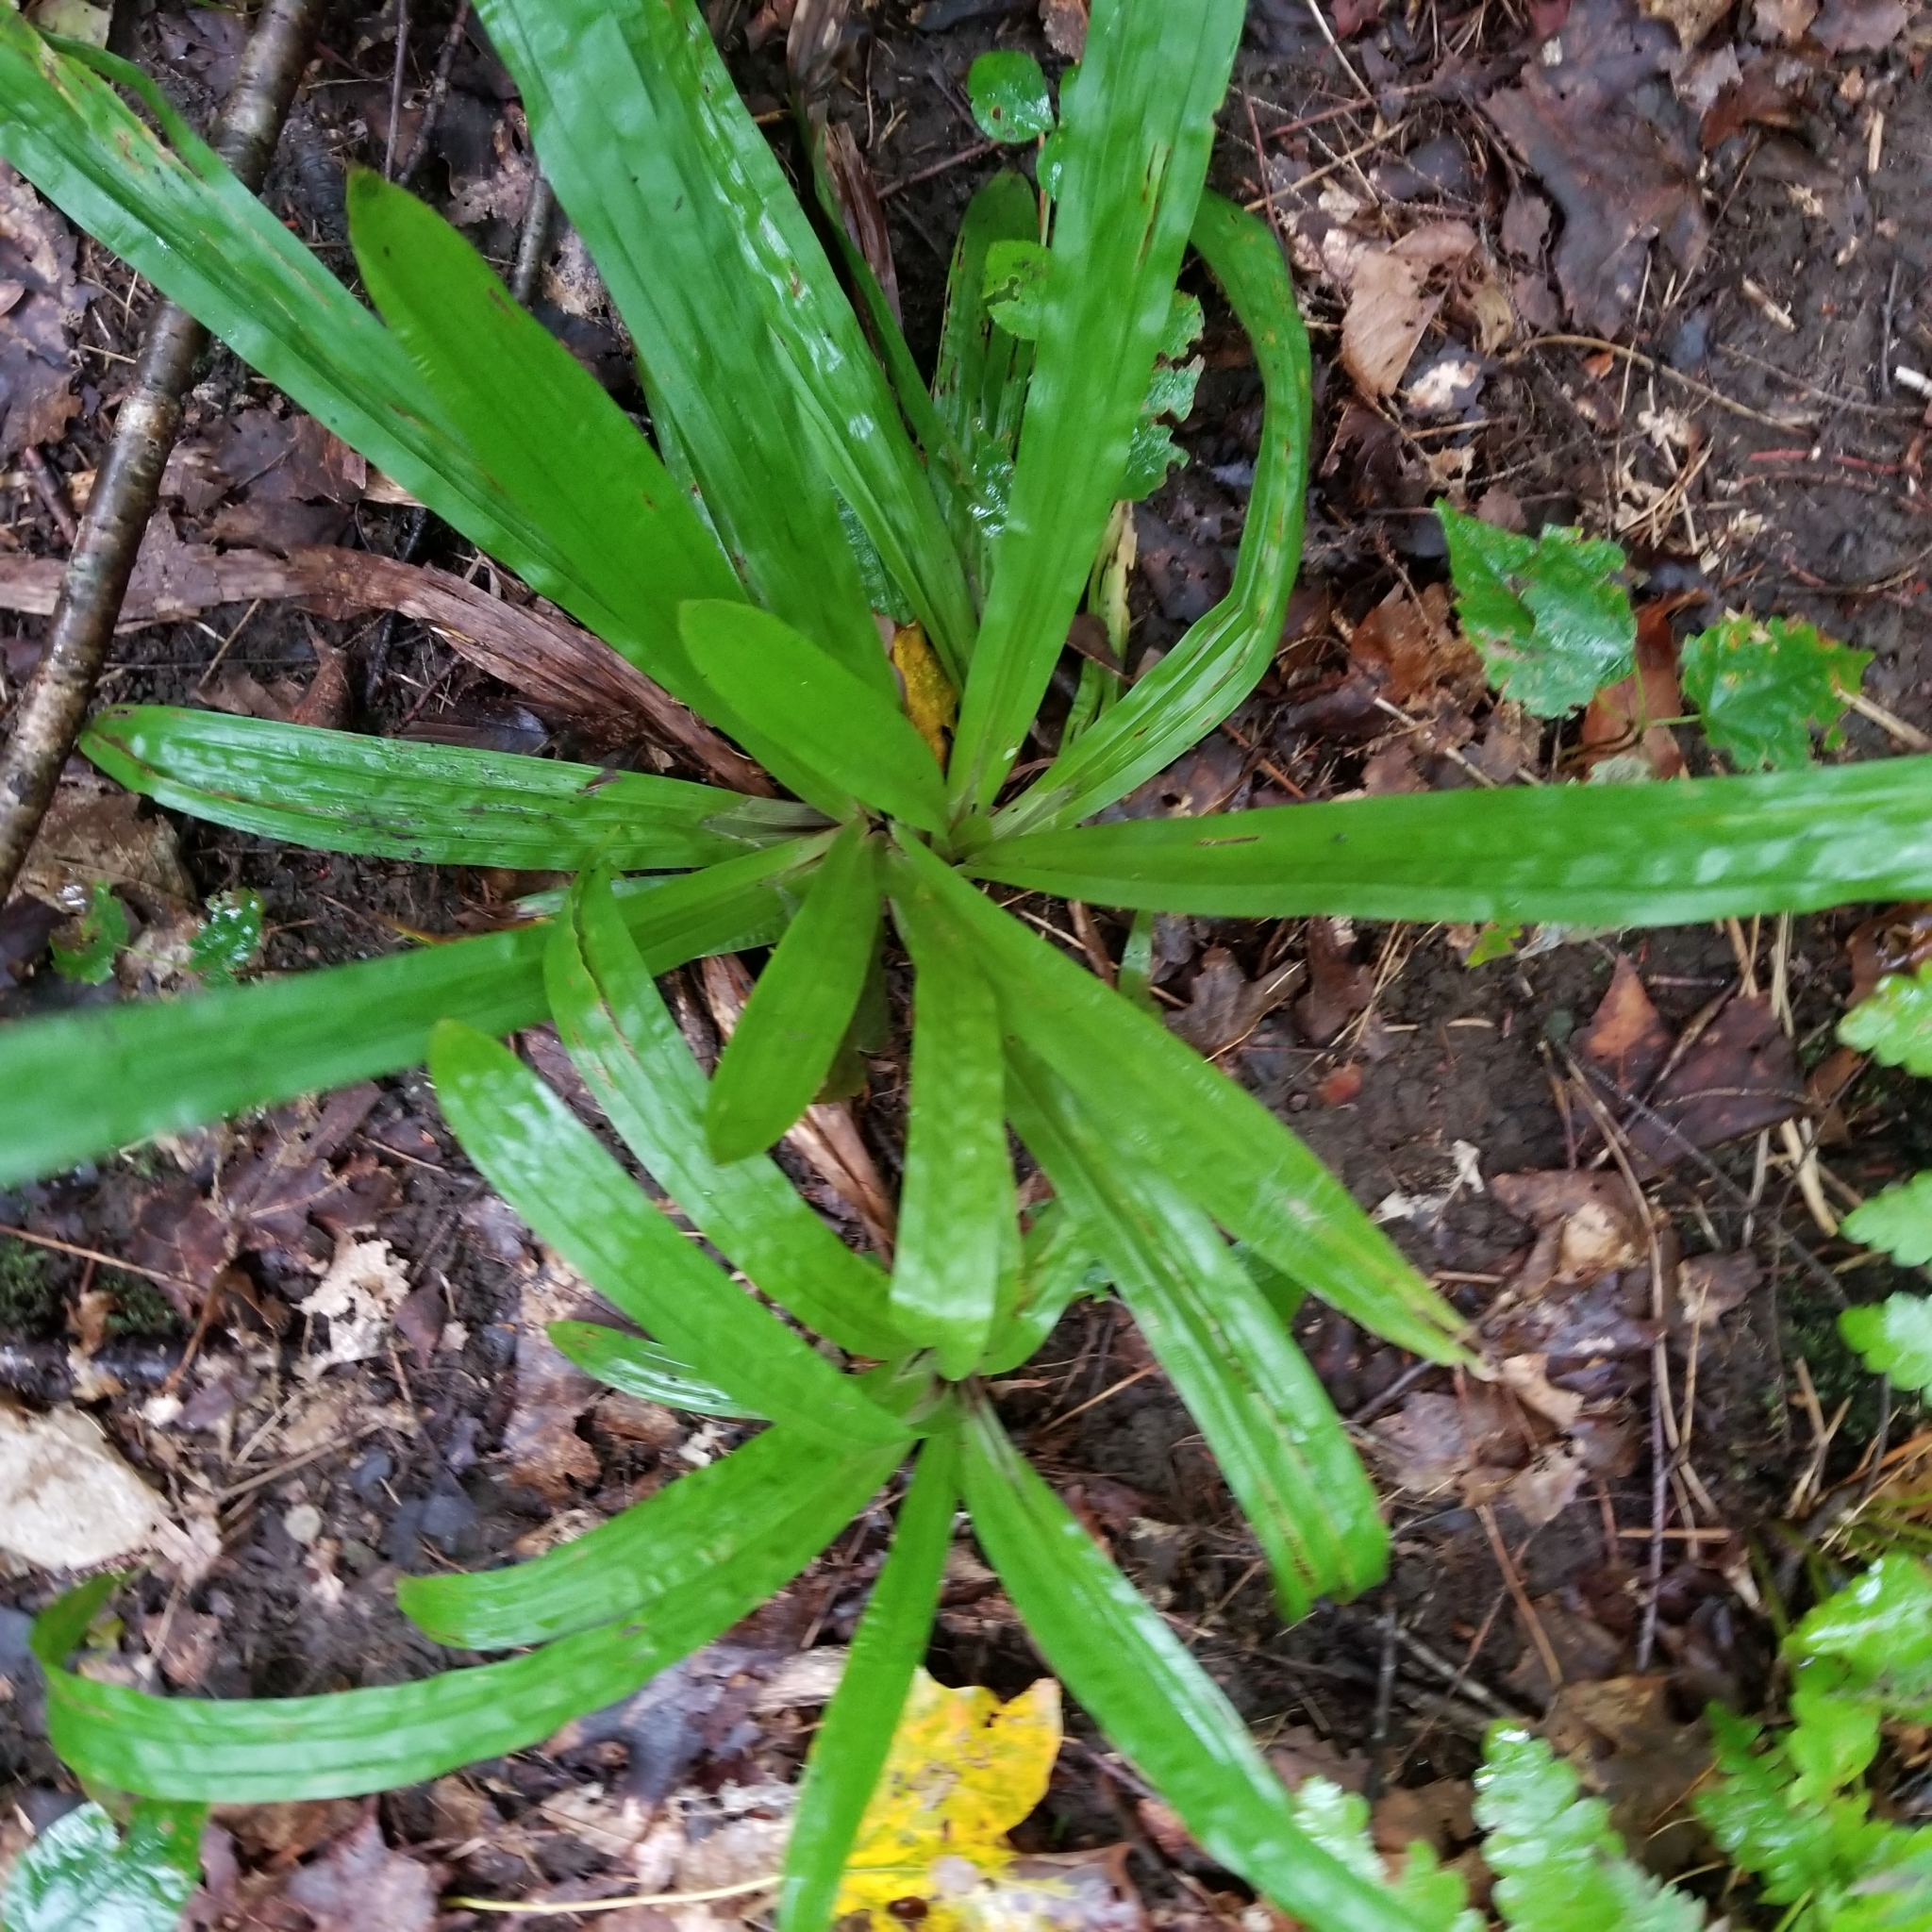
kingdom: Plantae
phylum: Tracheophyta
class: Liliopsida
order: Poales
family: Cyperaceae
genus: Carex
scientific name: Carex plantaginea
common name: Plantain-leaved sedge
